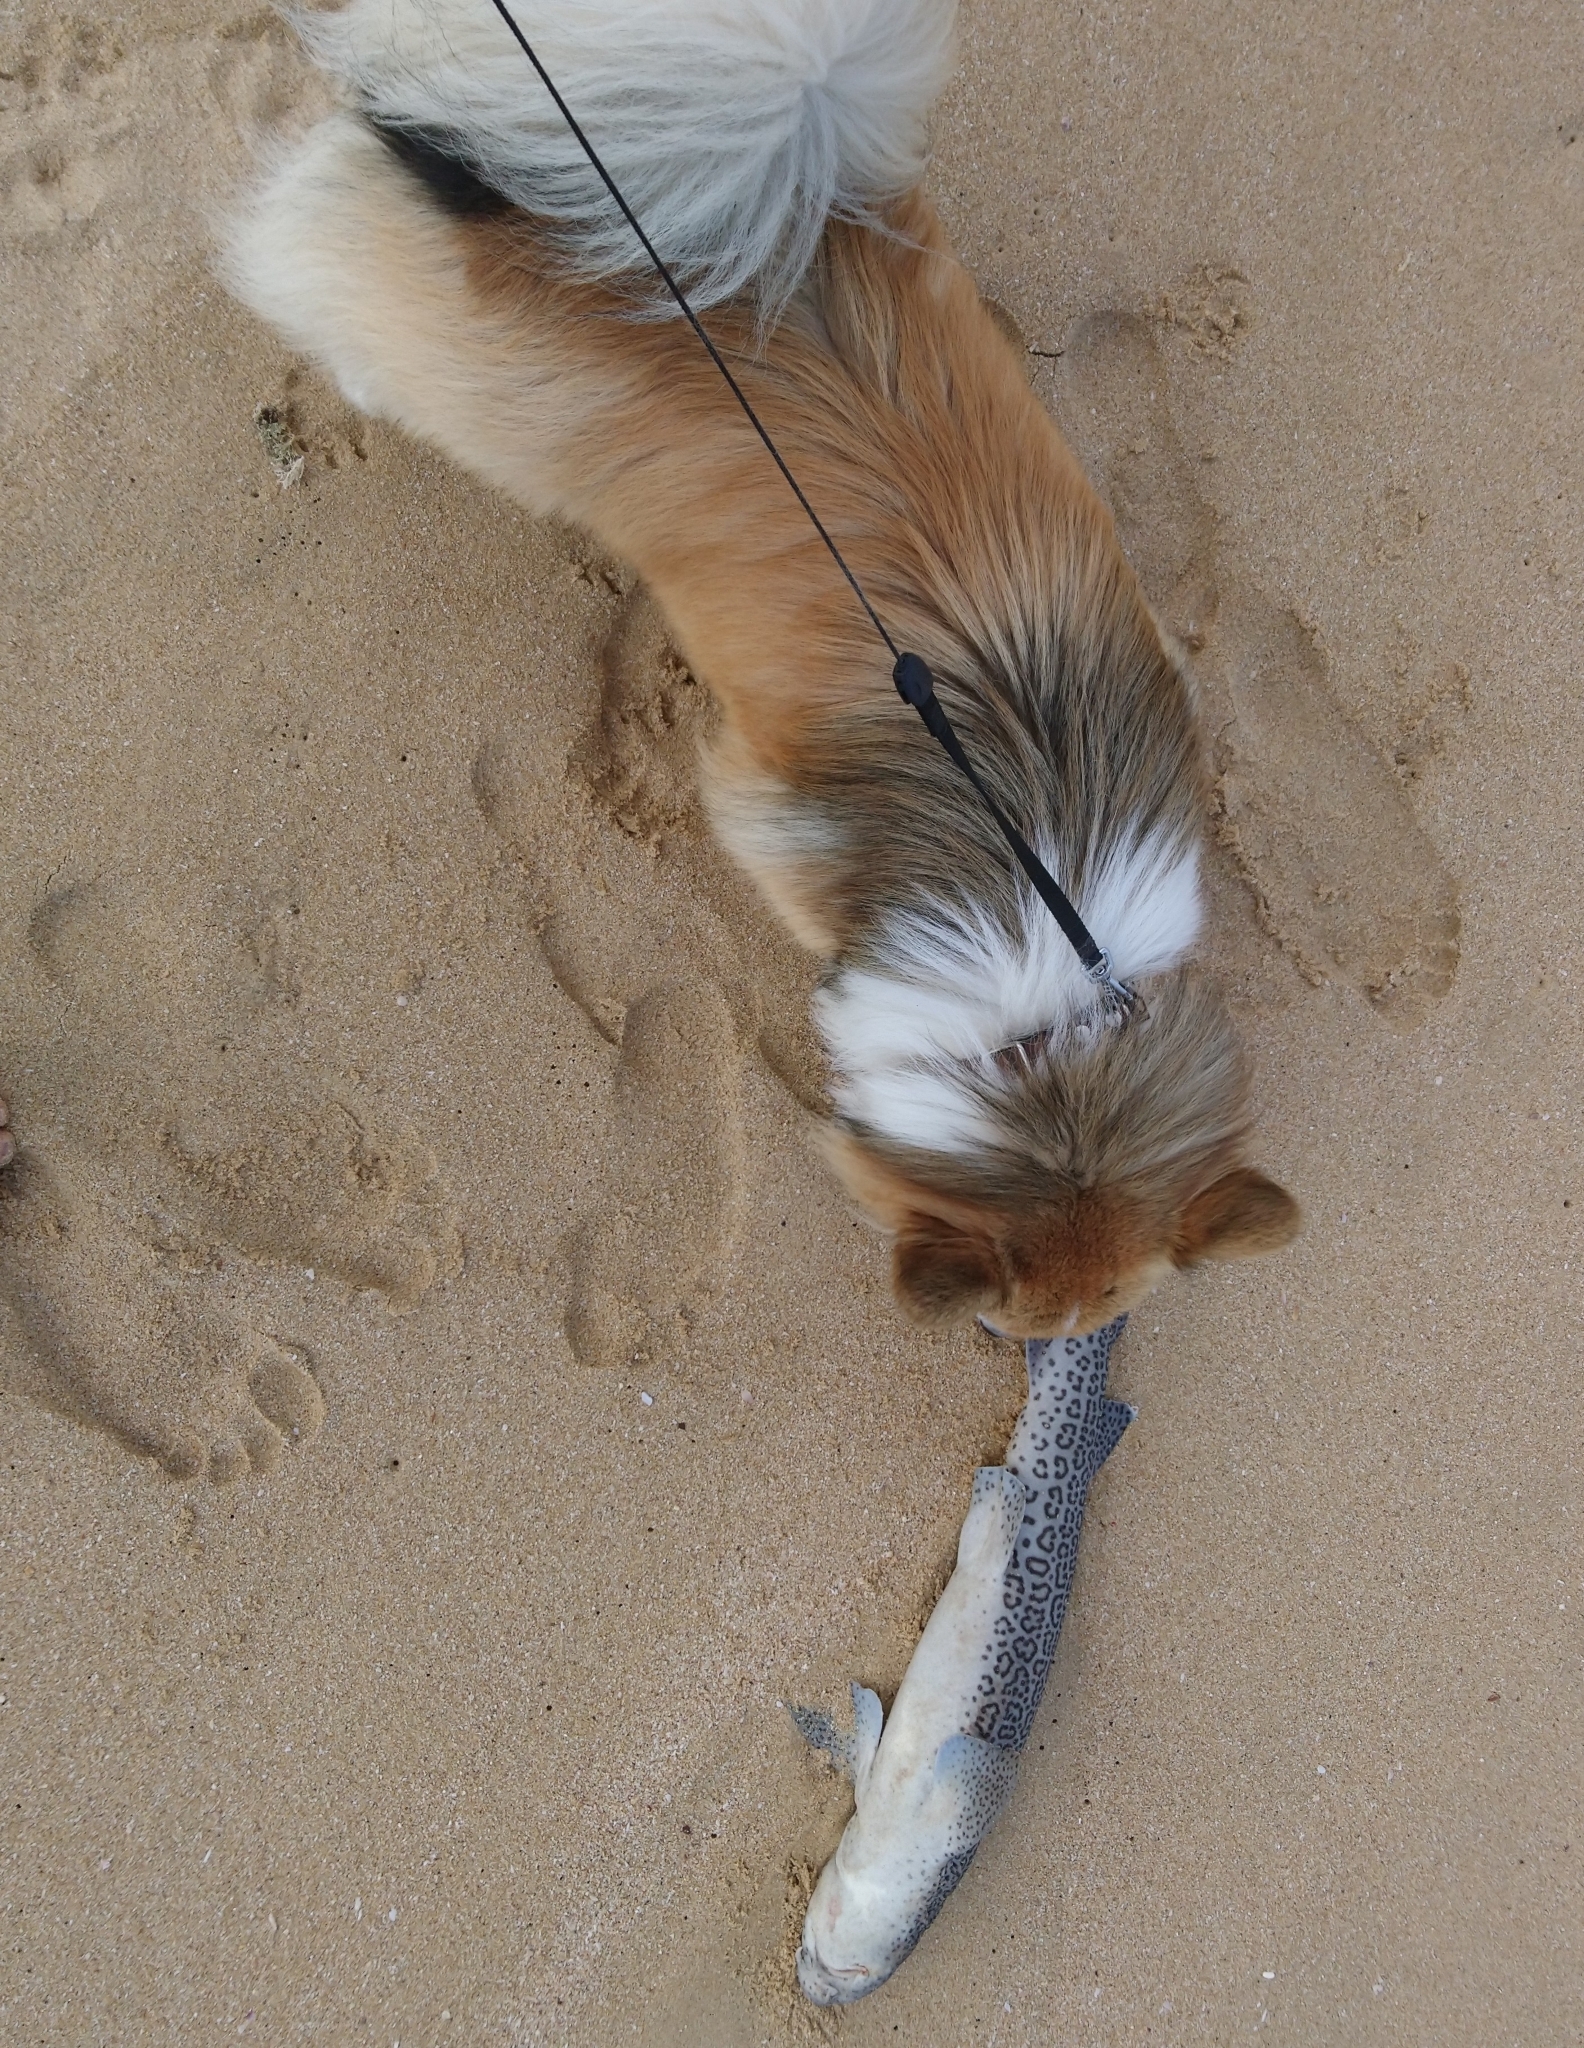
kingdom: Animalia
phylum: Chordata
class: Elasmobranchii
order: Carcharhiniformes
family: Scyliorhinidae
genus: Poroderma
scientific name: Poroderma pantherinum
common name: Leopard catshark
